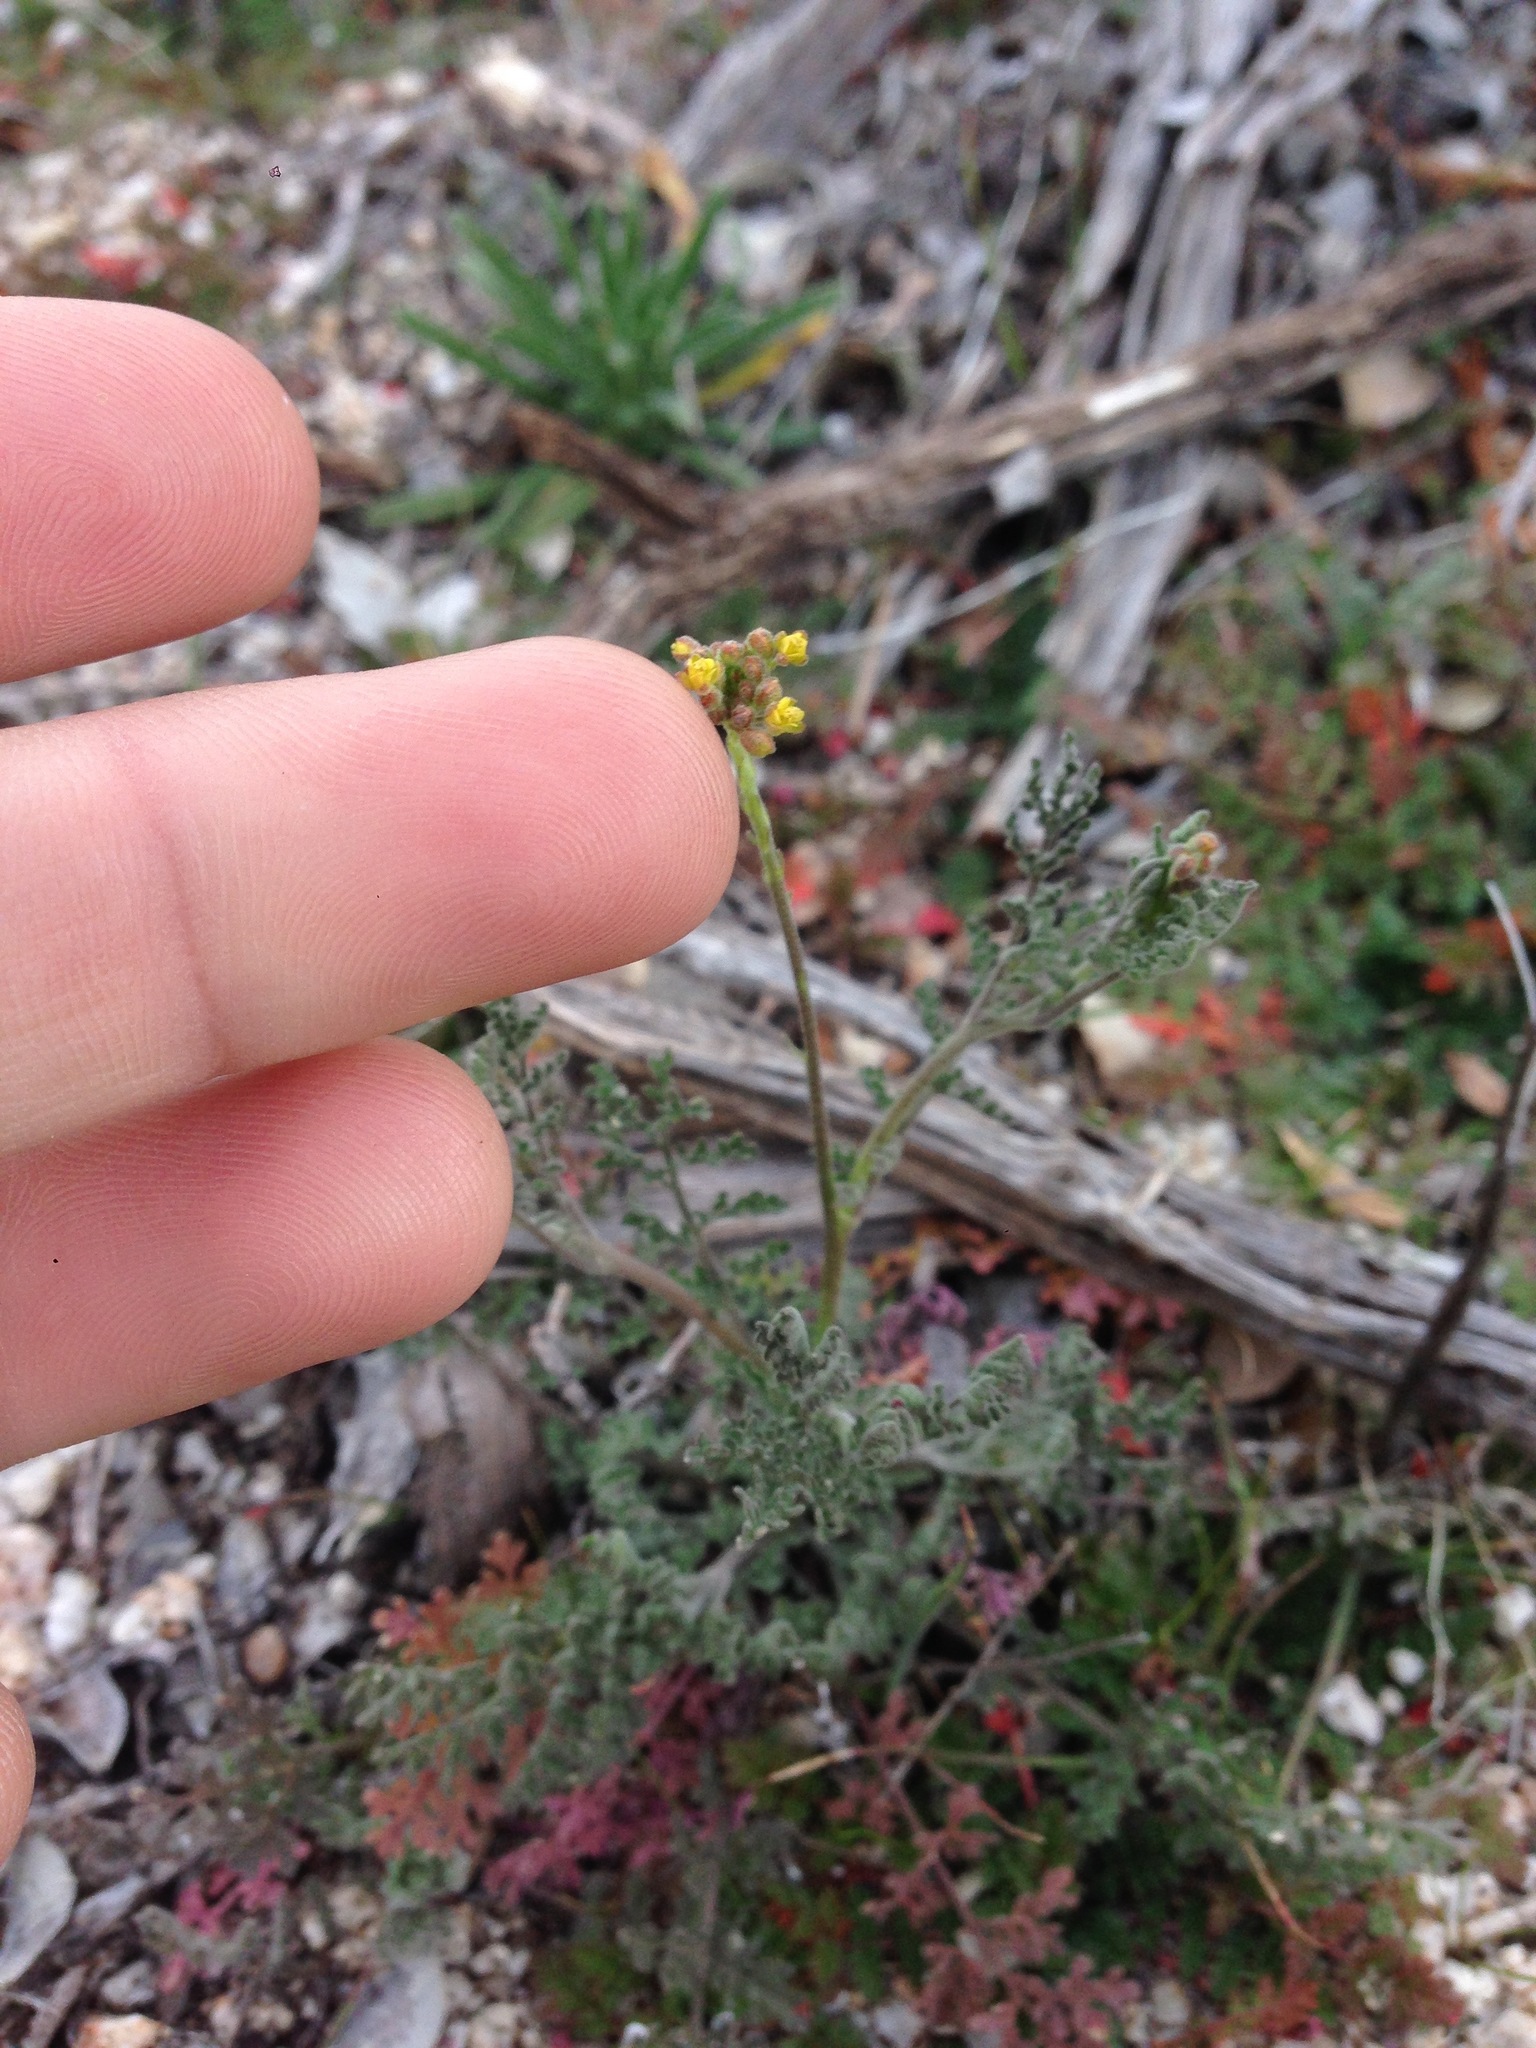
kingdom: Plantae
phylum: Tracheophyta
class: Magnoliopsida
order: Brassicales
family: Brassicaceae
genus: Descurainia
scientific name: Descurainia pinnata
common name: Western tansy mustard
